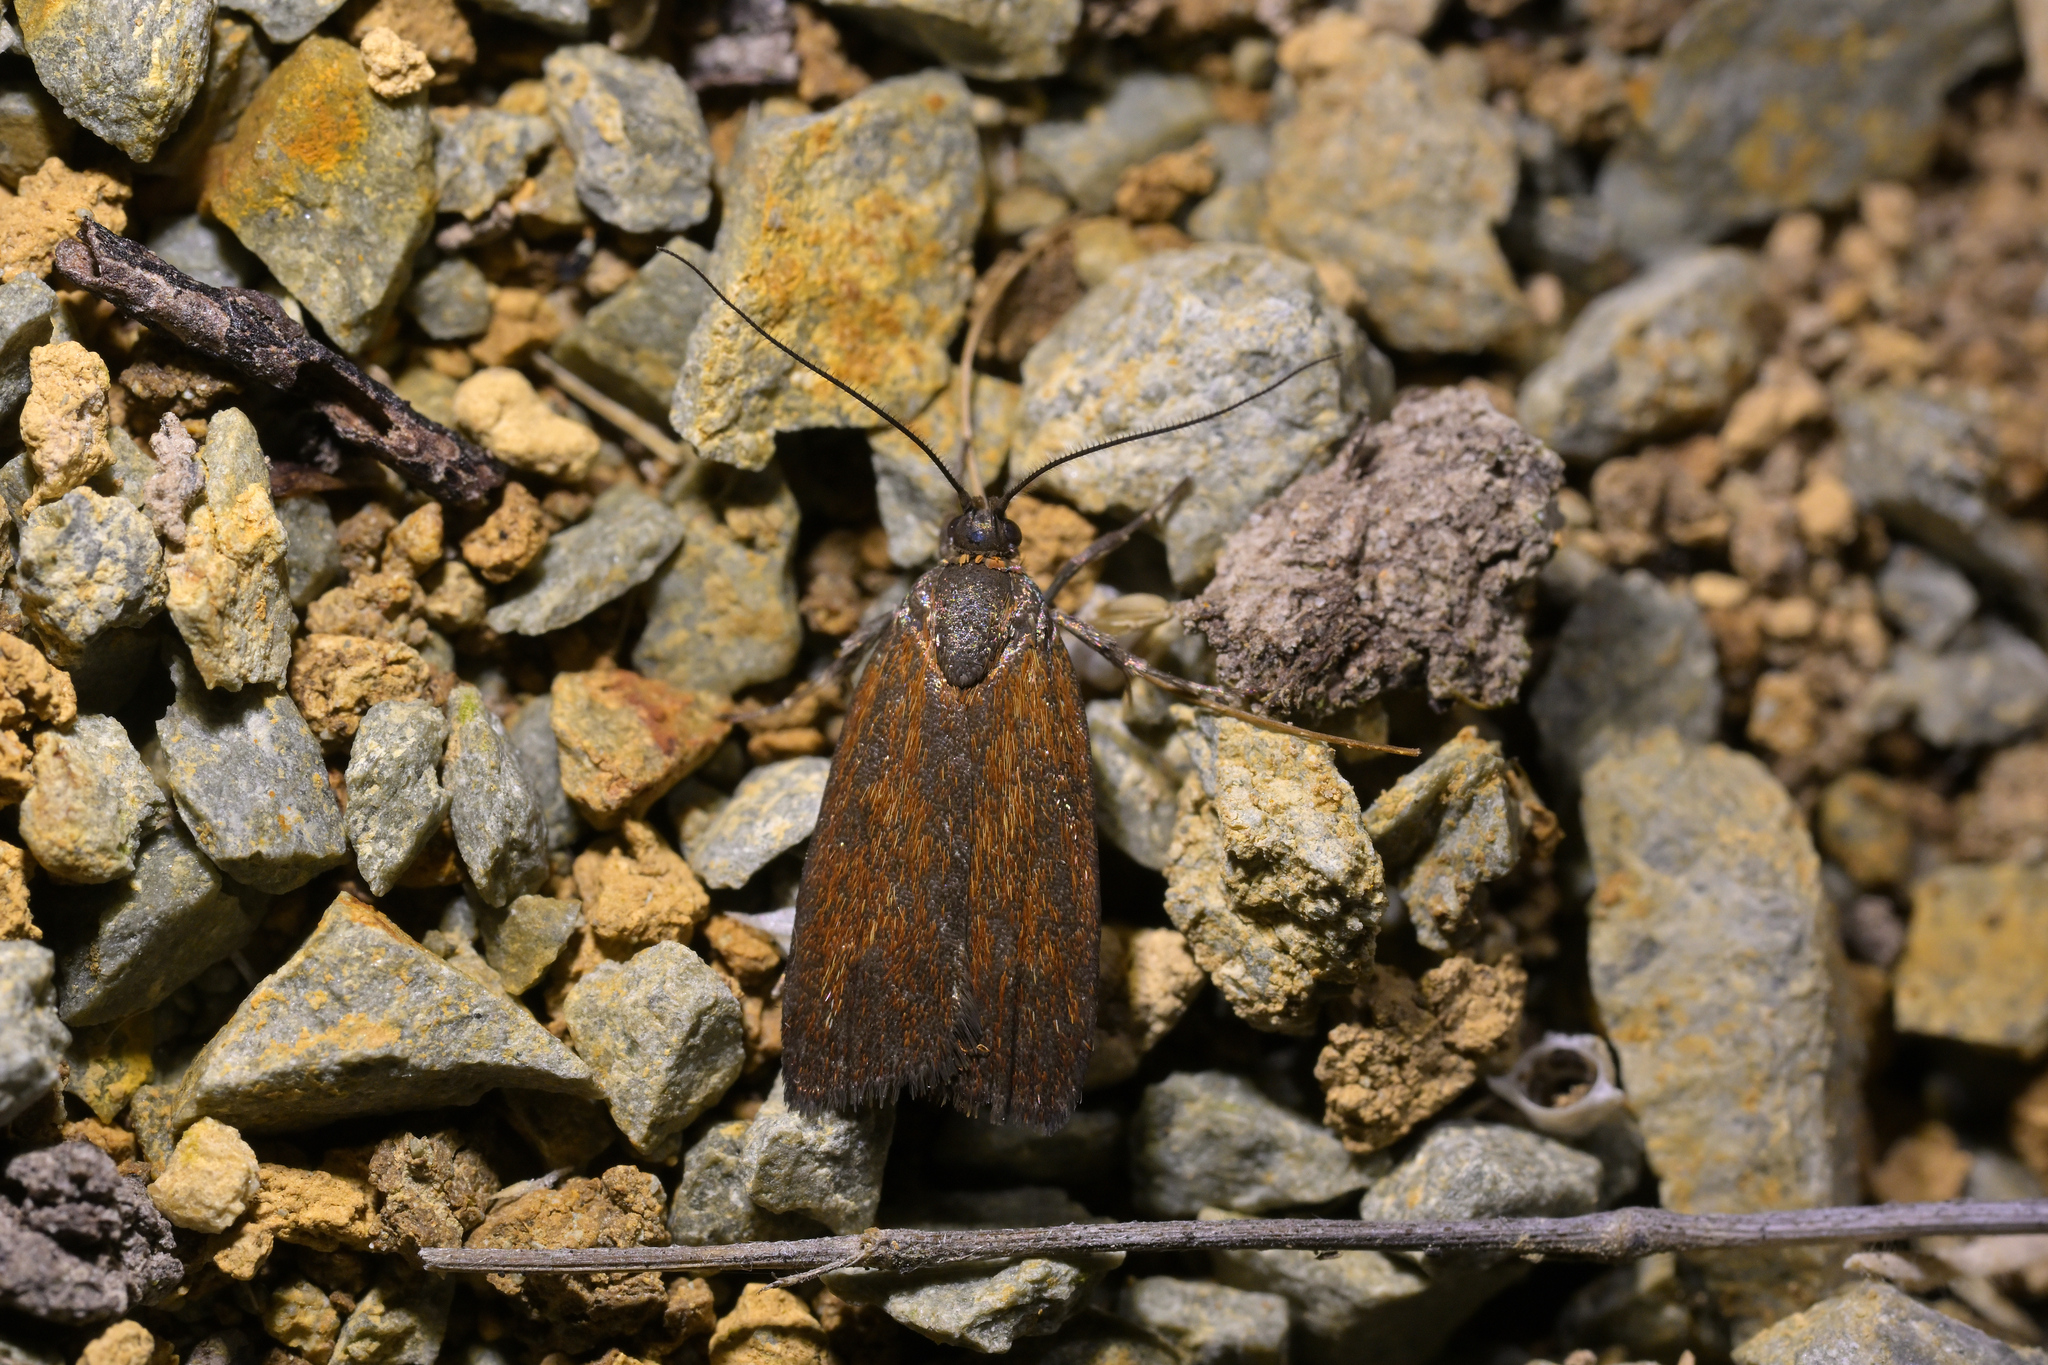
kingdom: Animalia
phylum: Arthropoda
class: Insecta
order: Lepidoptera
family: Oecophoridae
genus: Hierodoris
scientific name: Hierodoris
